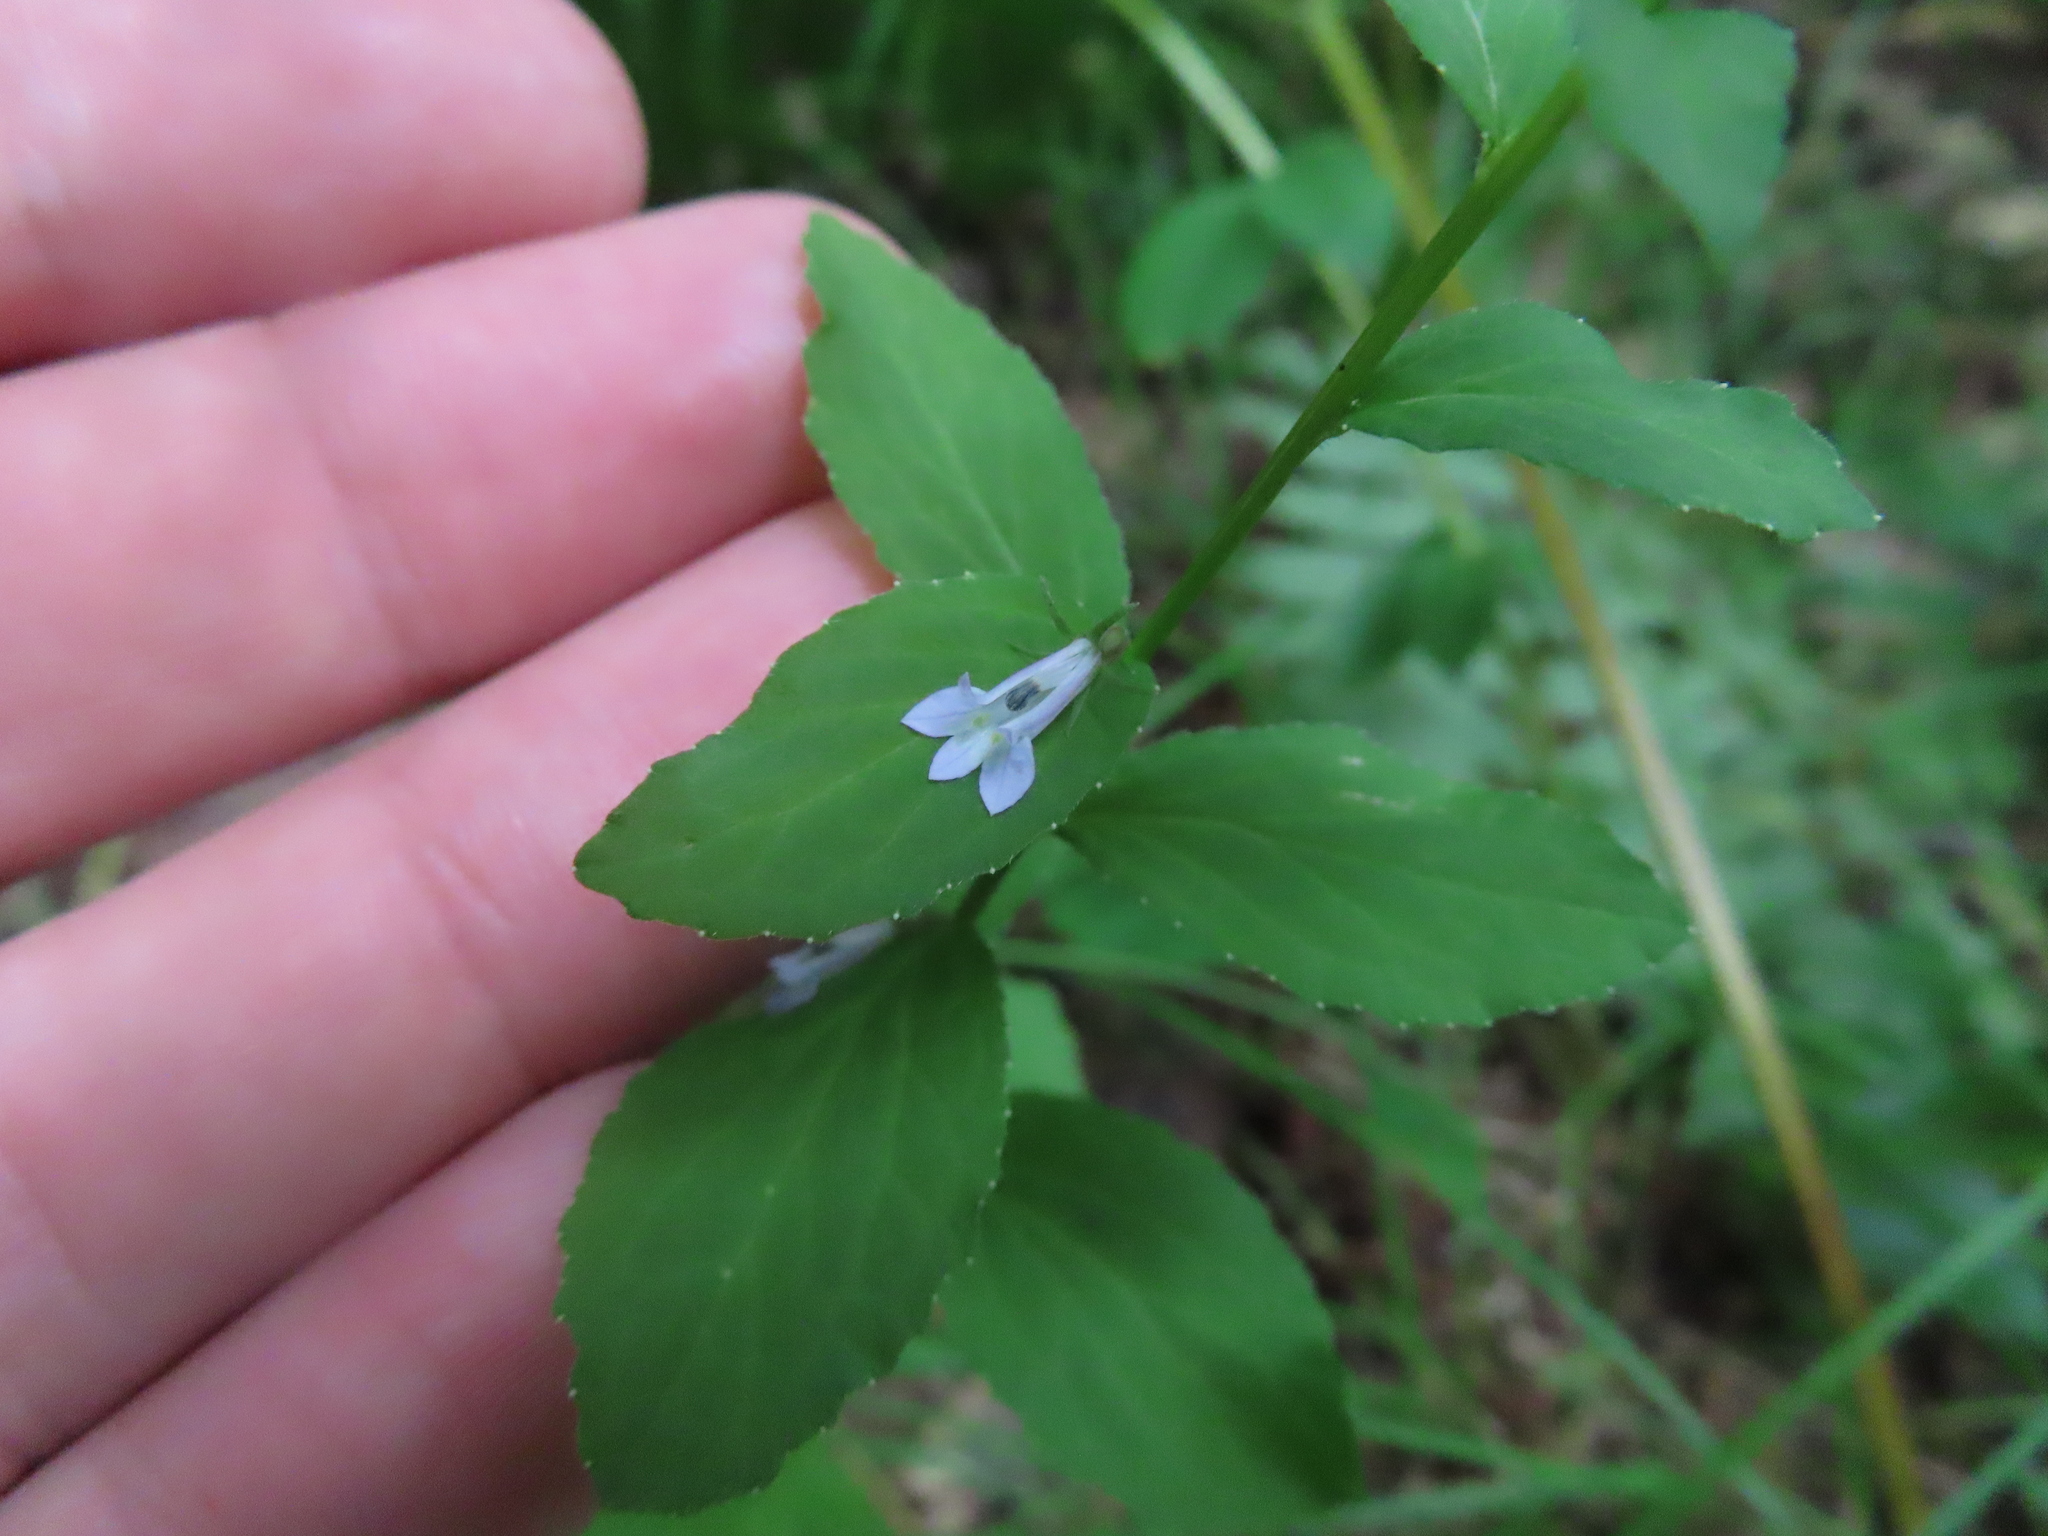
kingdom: Plantae
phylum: Tracheophyta
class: Magnoliopsida
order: Asterales
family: Campanulaceae
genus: Lobelia
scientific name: Lobelia inflata
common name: Indian tobacco
